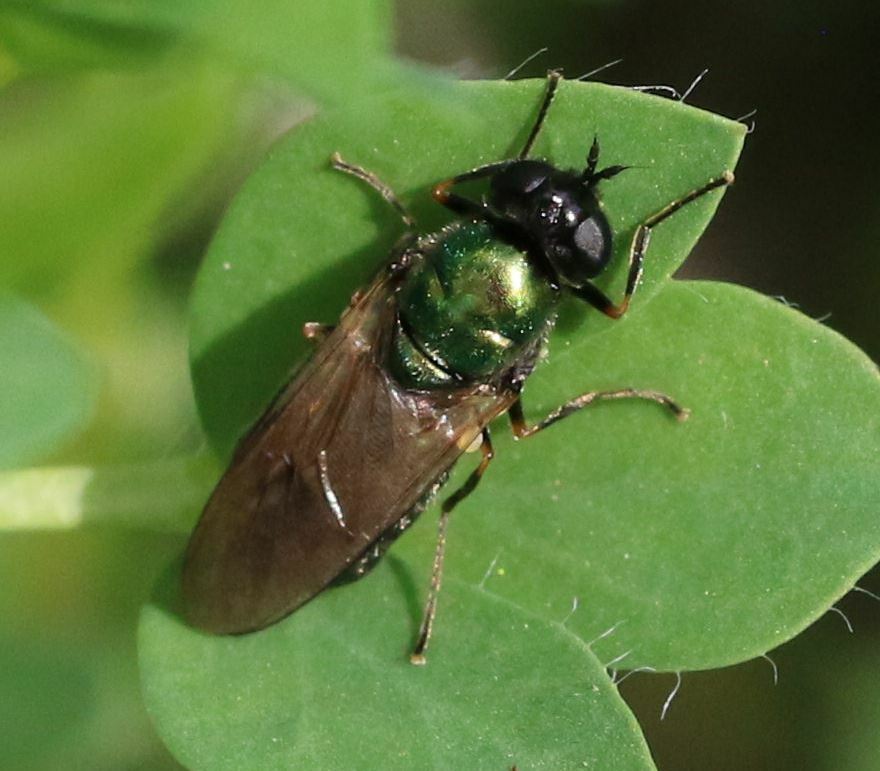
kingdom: Animalia
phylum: Arthropoda
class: Insecta
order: Diptera
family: Stratiomyidae
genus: Chloromyia
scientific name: Chloromyia formosa
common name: Soldier fly
